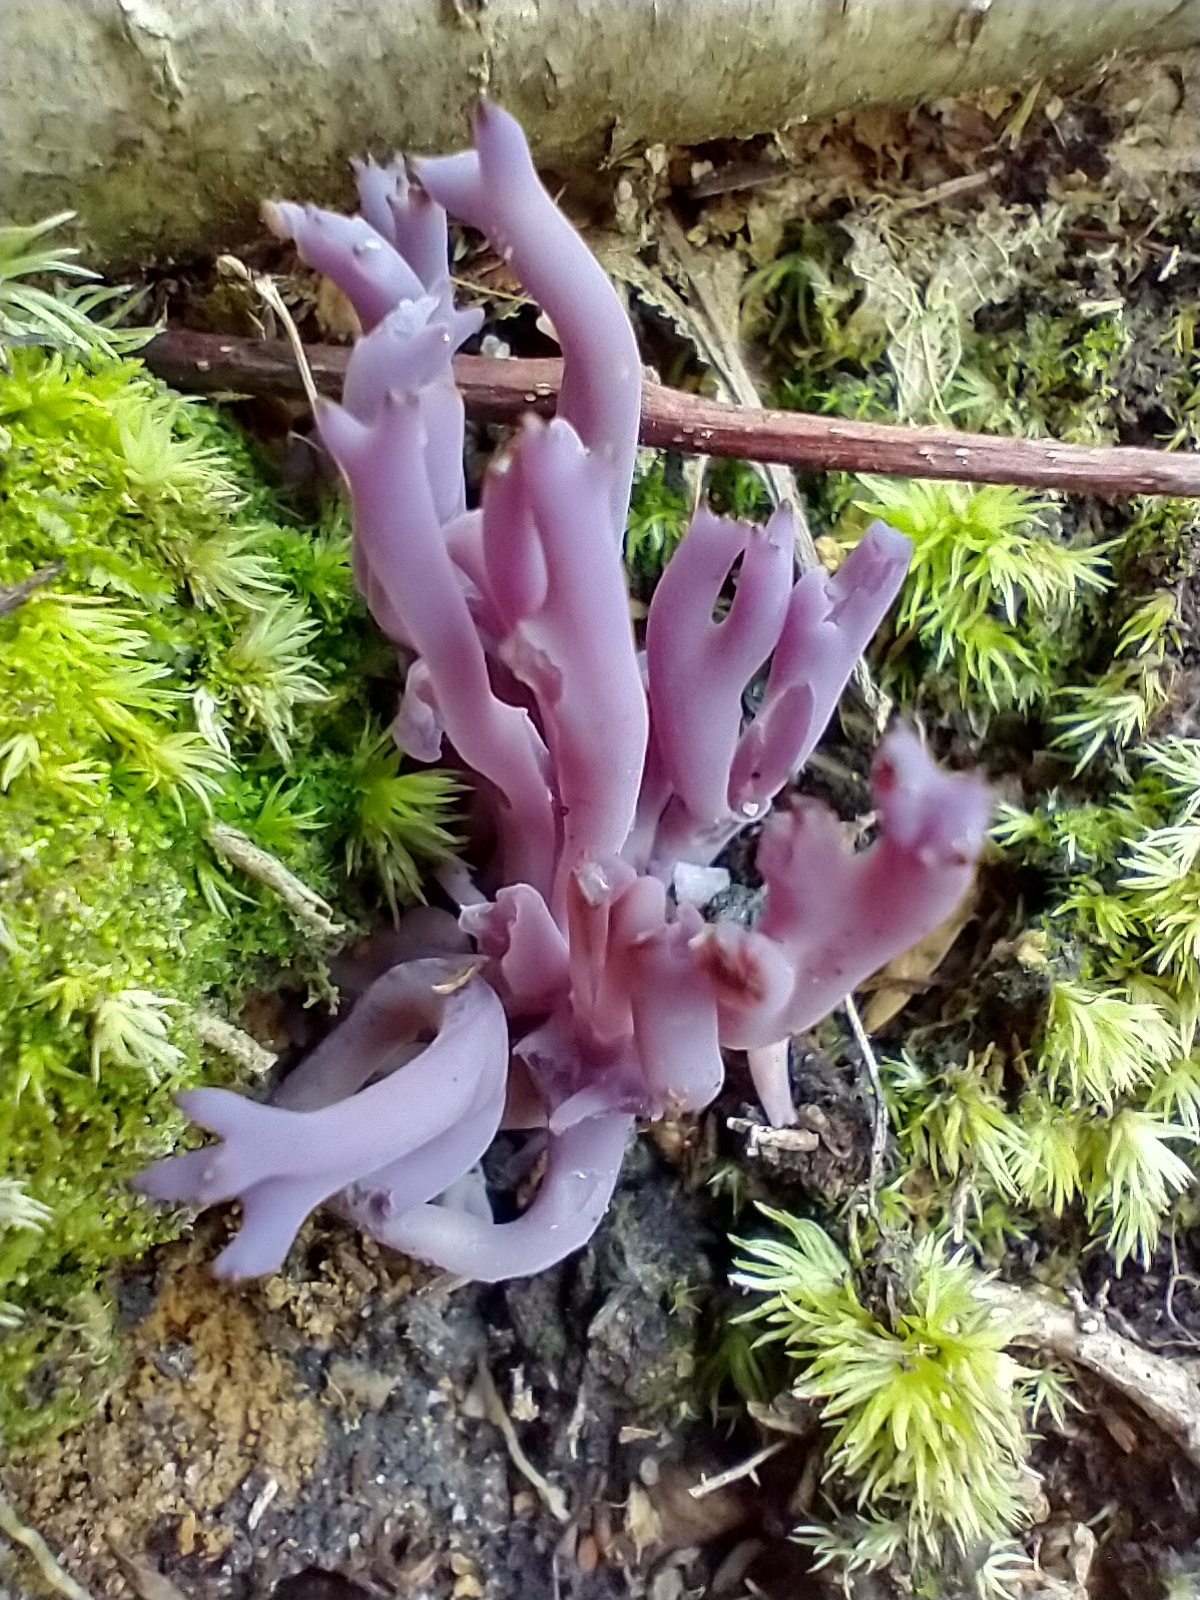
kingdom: Fungi
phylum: Basidiomycota
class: Agaricomycetes
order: Agaricales
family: Clavariaceae
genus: Clavaria
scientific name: Clavaria zollingeri
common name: Violet coral
